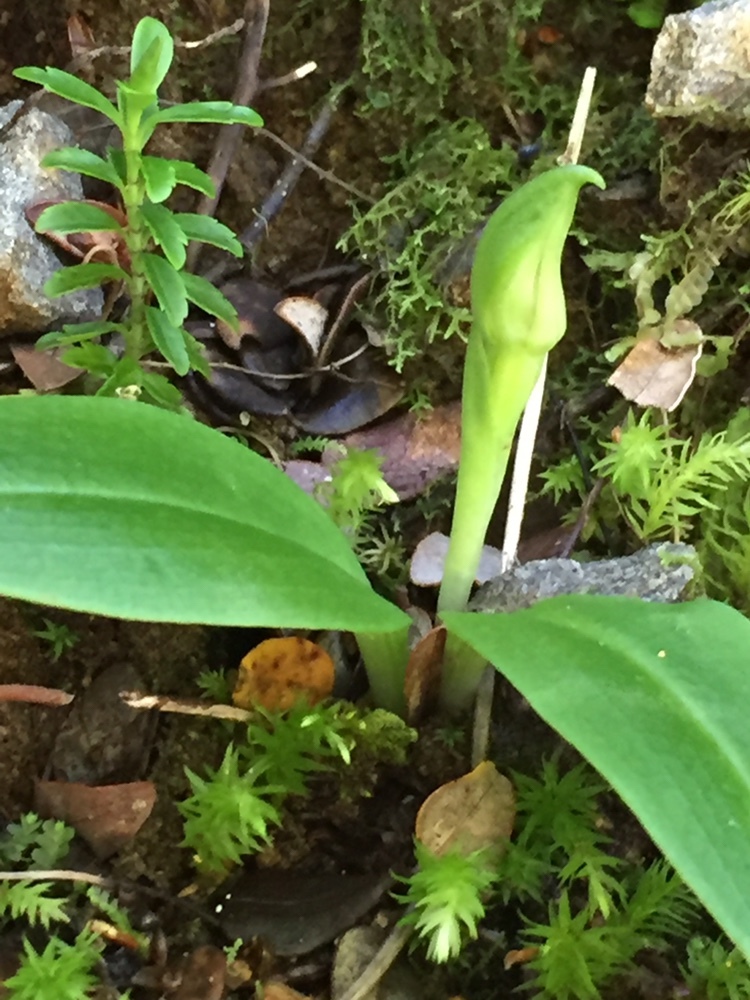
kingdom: Plantae
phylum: Tracheophyta
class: Liliopsida
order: Asparagales
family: Orchidaceae
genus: Chiloglottis
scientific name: Chiloglottis cornuta
